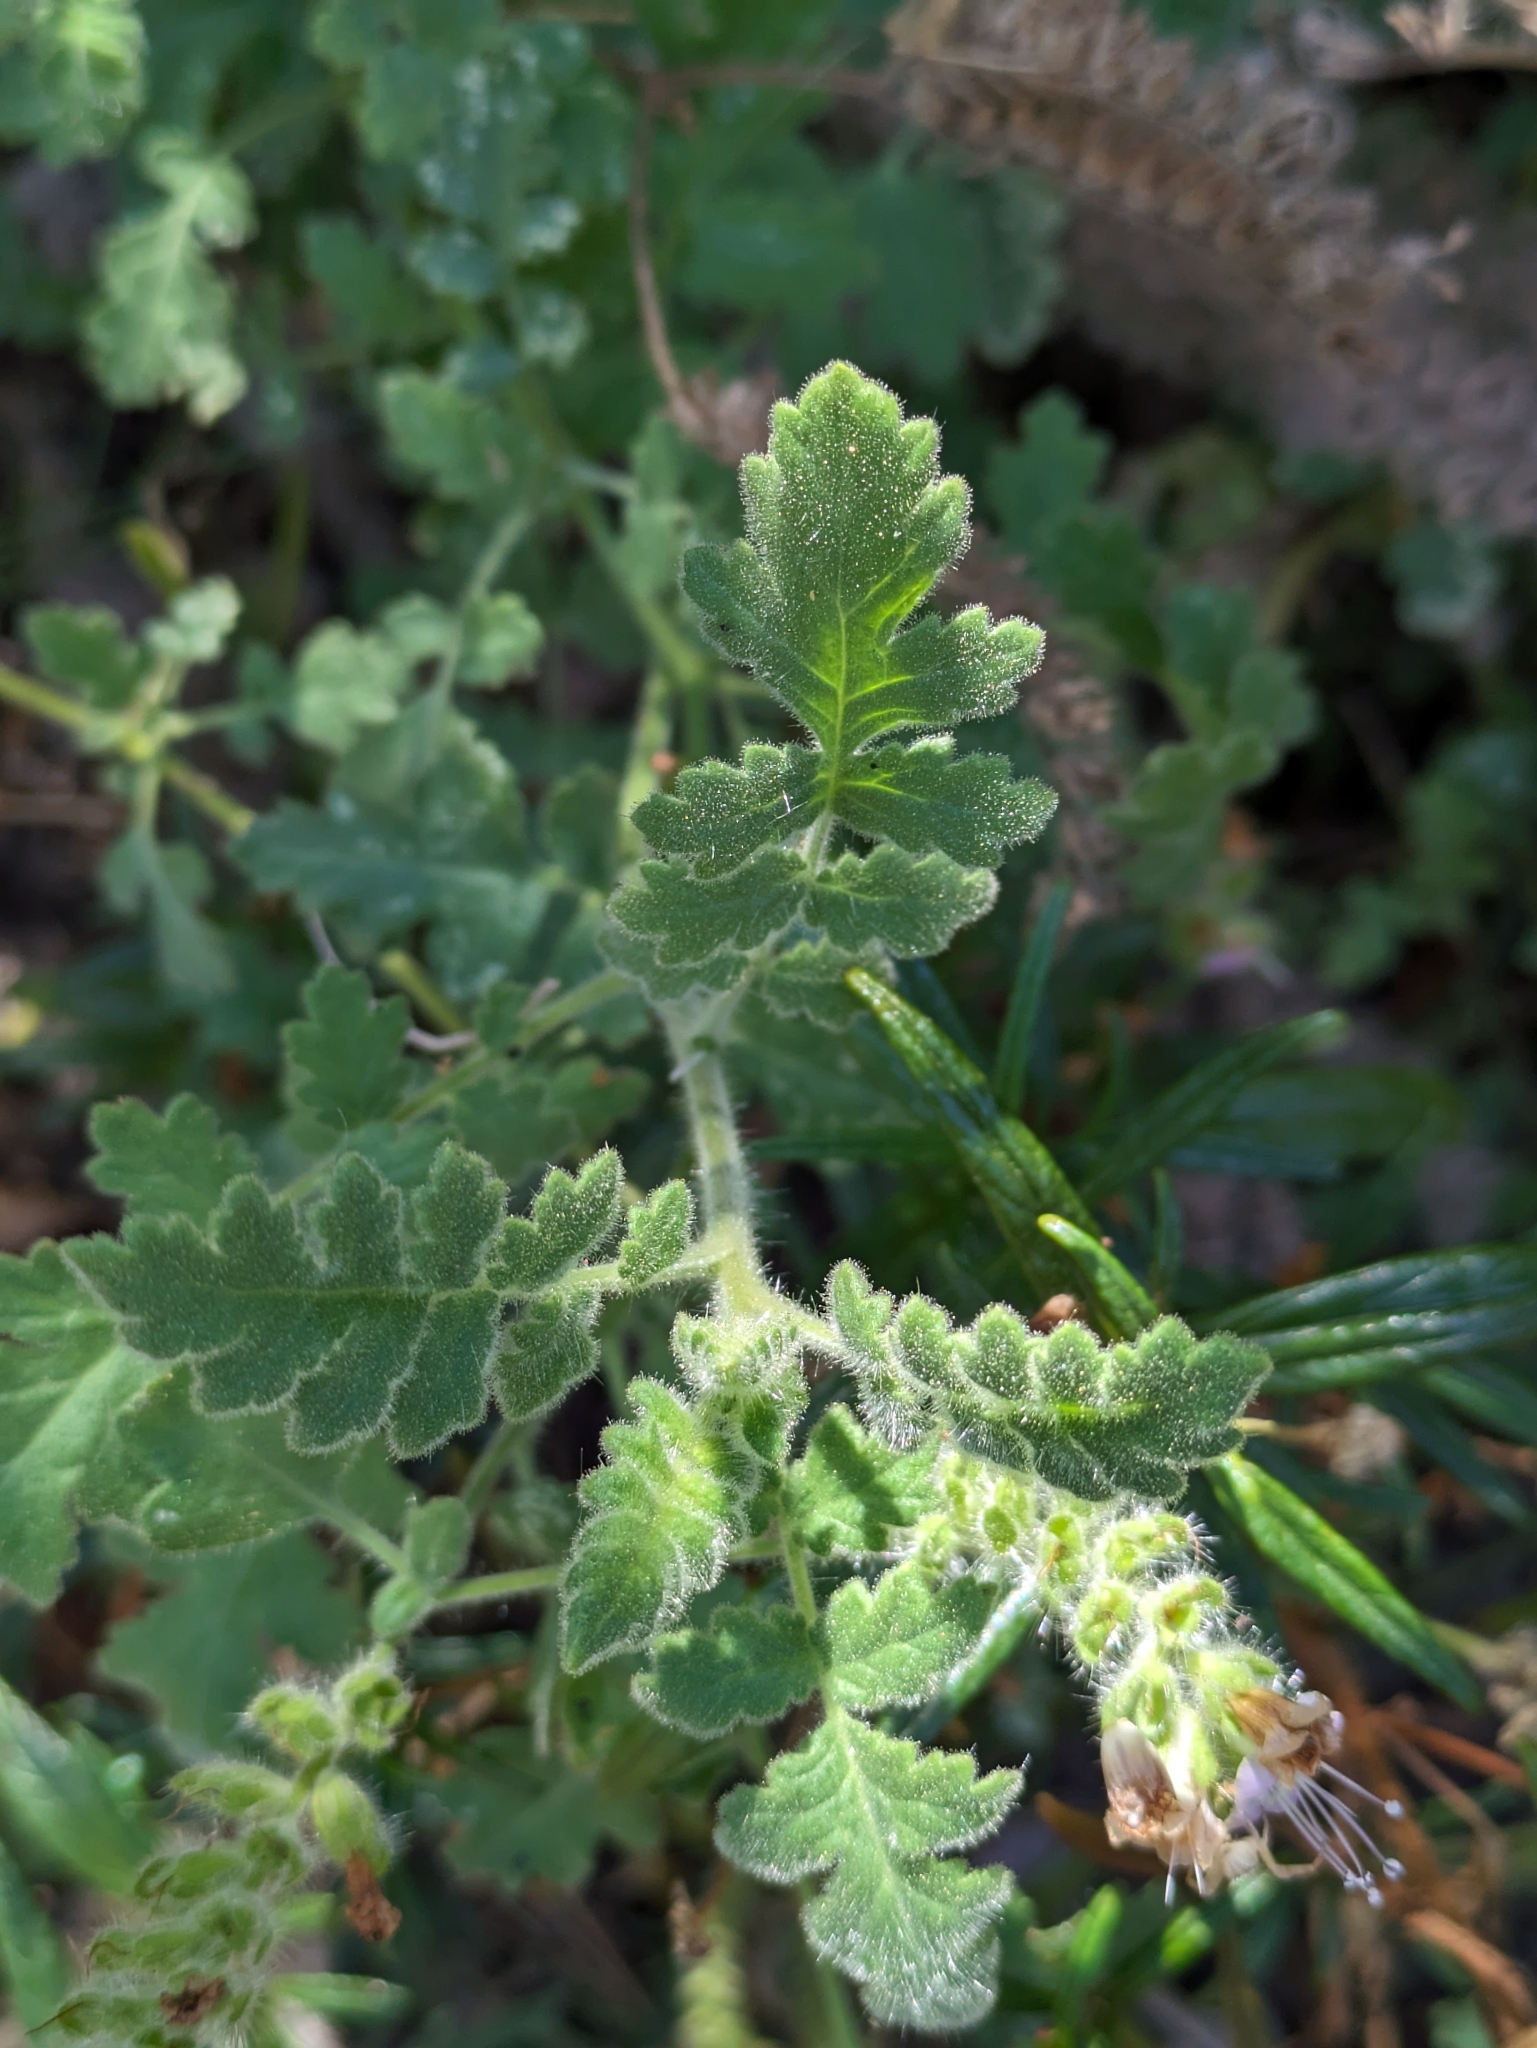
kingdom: Plantae
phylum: Tracheophyta
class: Magnoliopsida
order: Boraginales
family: Hydrophyllaceae
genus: Phacelia
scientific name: Phacelia ramosissima
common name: Branching phacelia
